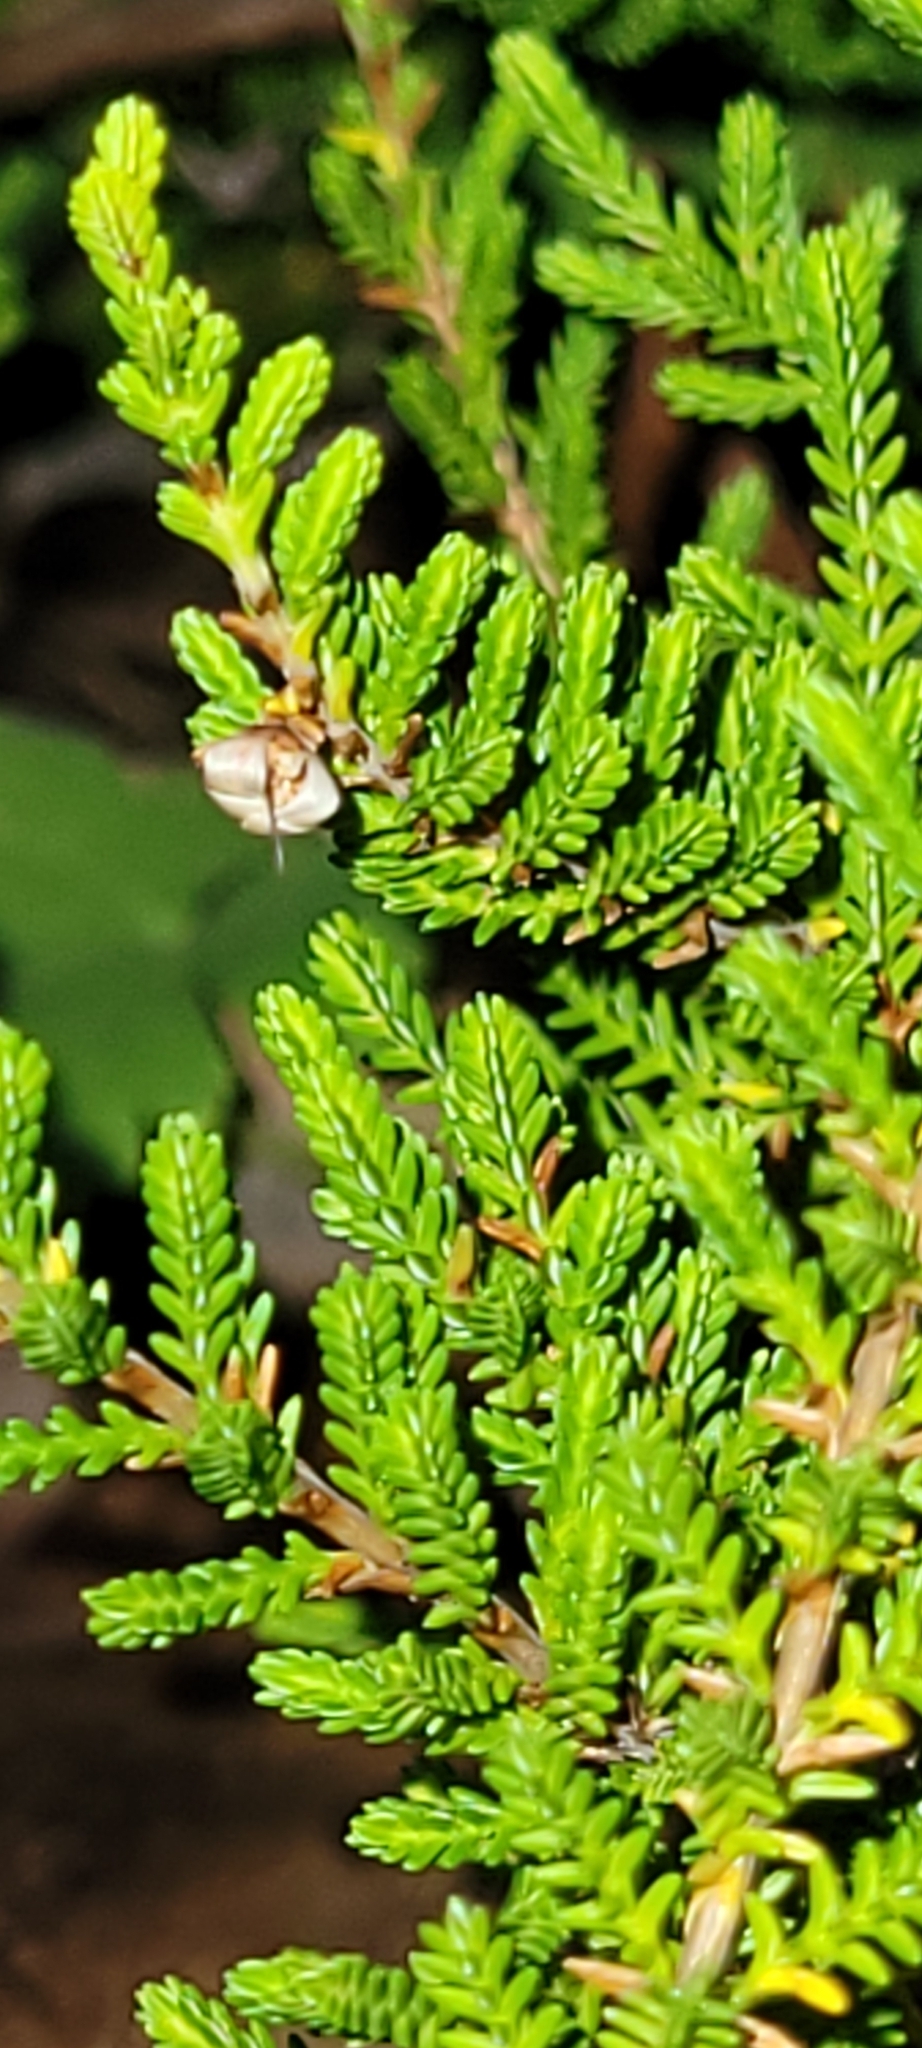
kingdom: Plantae
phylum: Tracheophyta
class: Magnoliopsida
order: Ericales
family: Ericaceae
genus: Calluna
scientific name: Calluna vulgaris
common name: Heather
